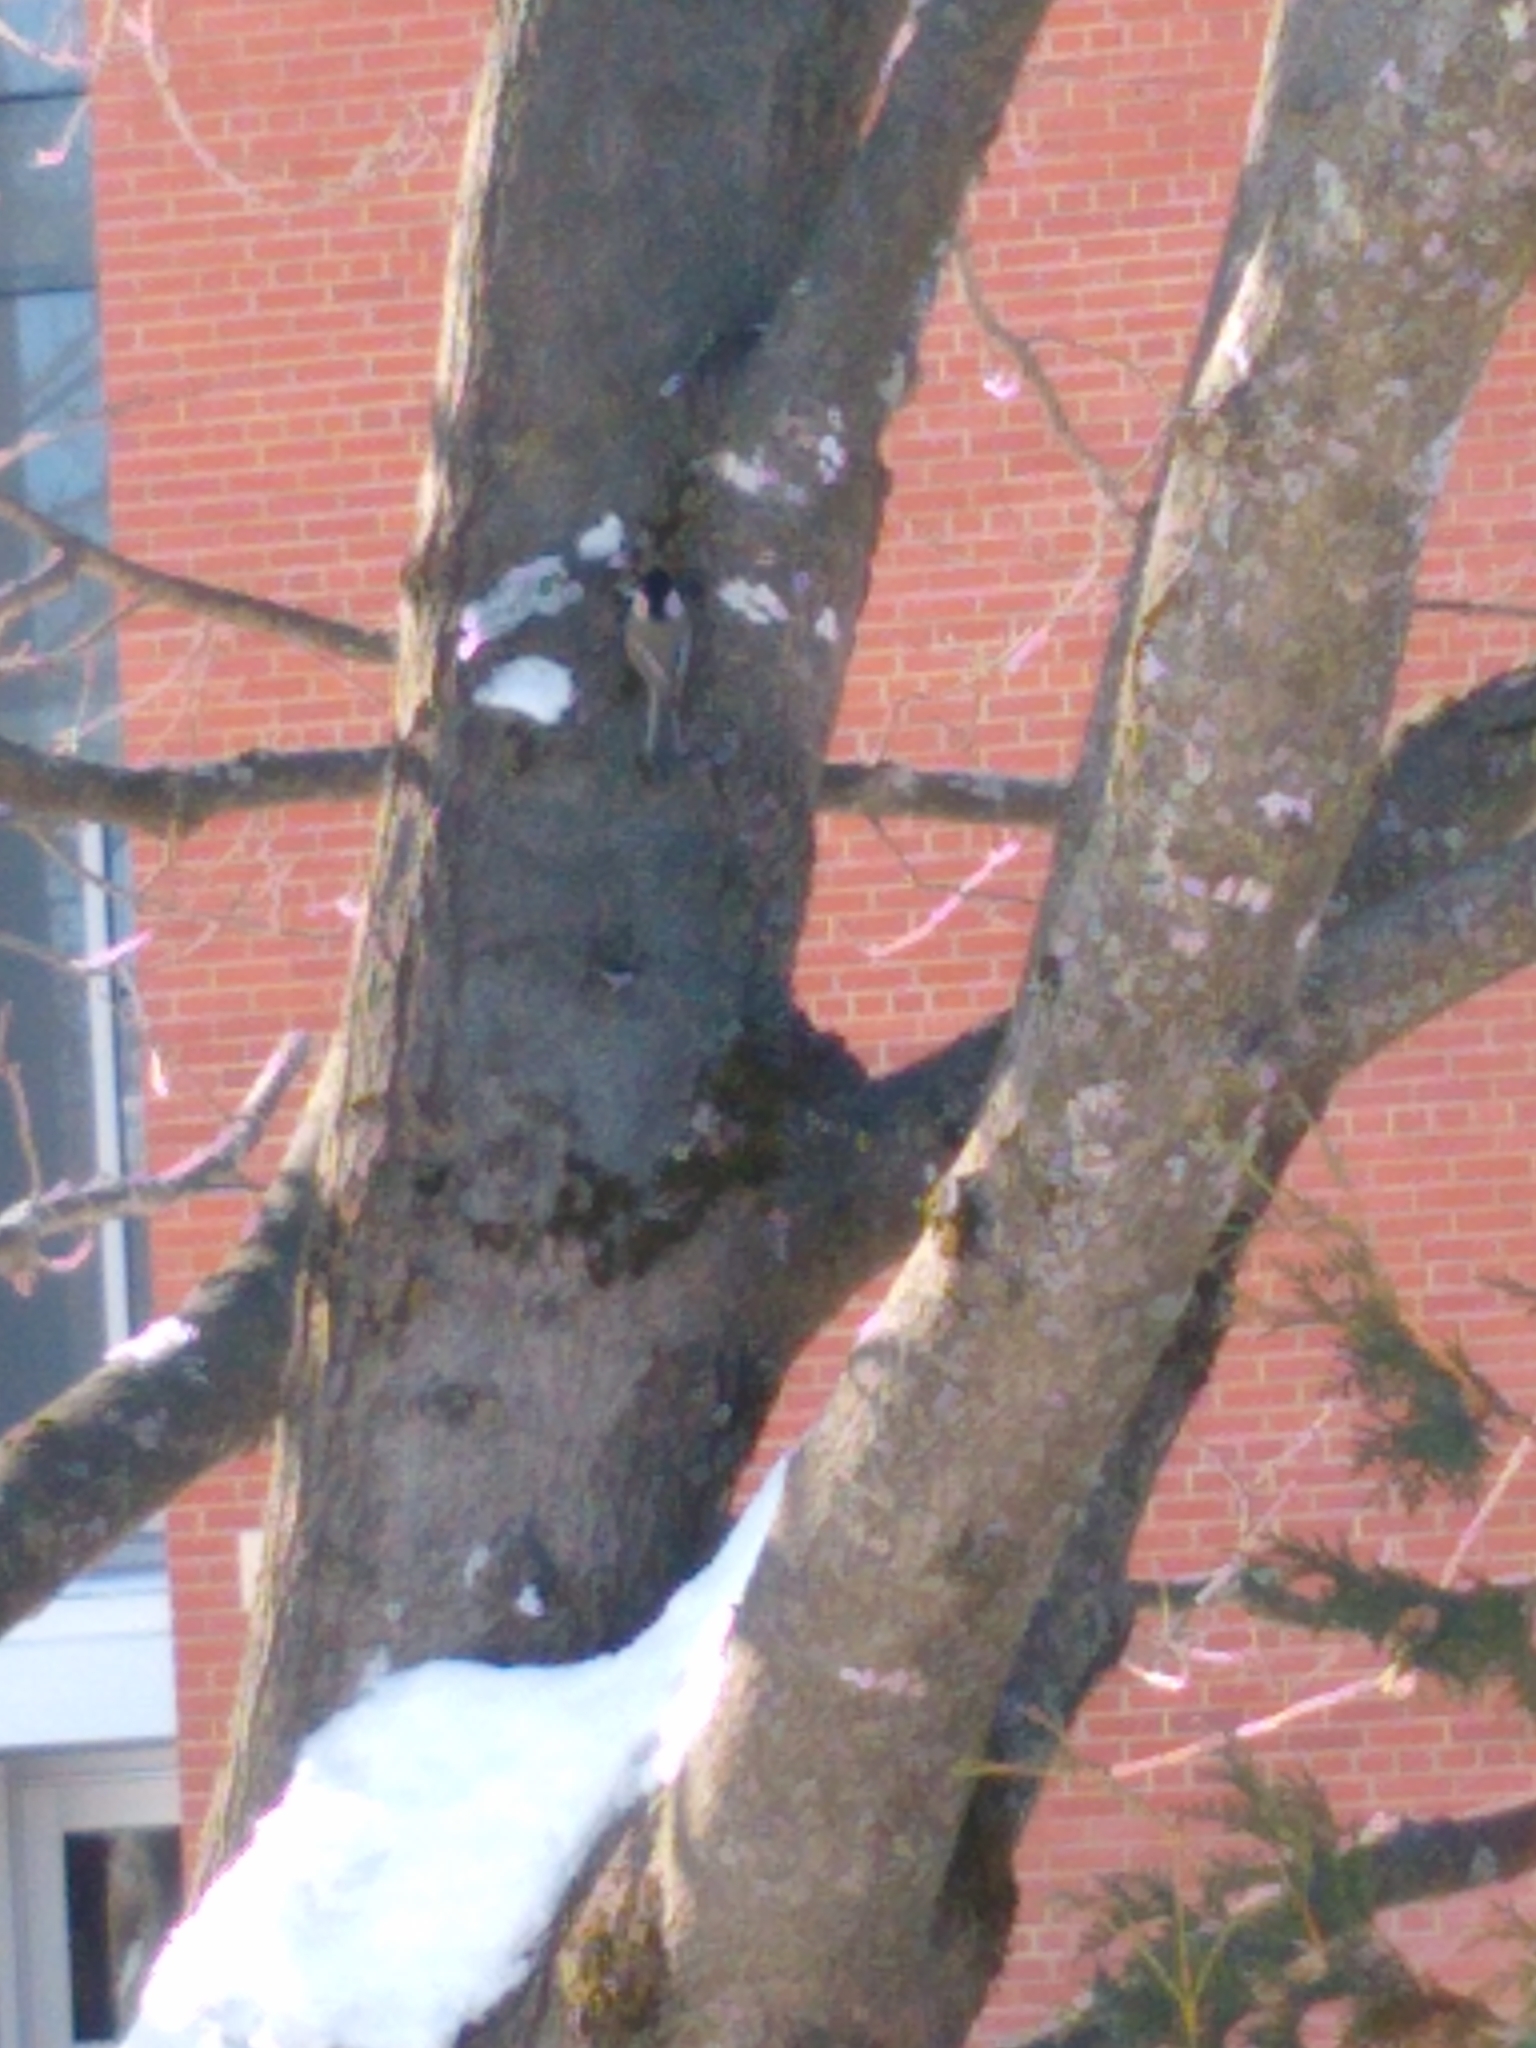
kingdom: Animalia
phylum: Chordata
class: Aves
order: Passeriformes
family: Paridae
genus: Poecile
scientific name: Poecile atricapillus
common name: Black-capped chickadee
